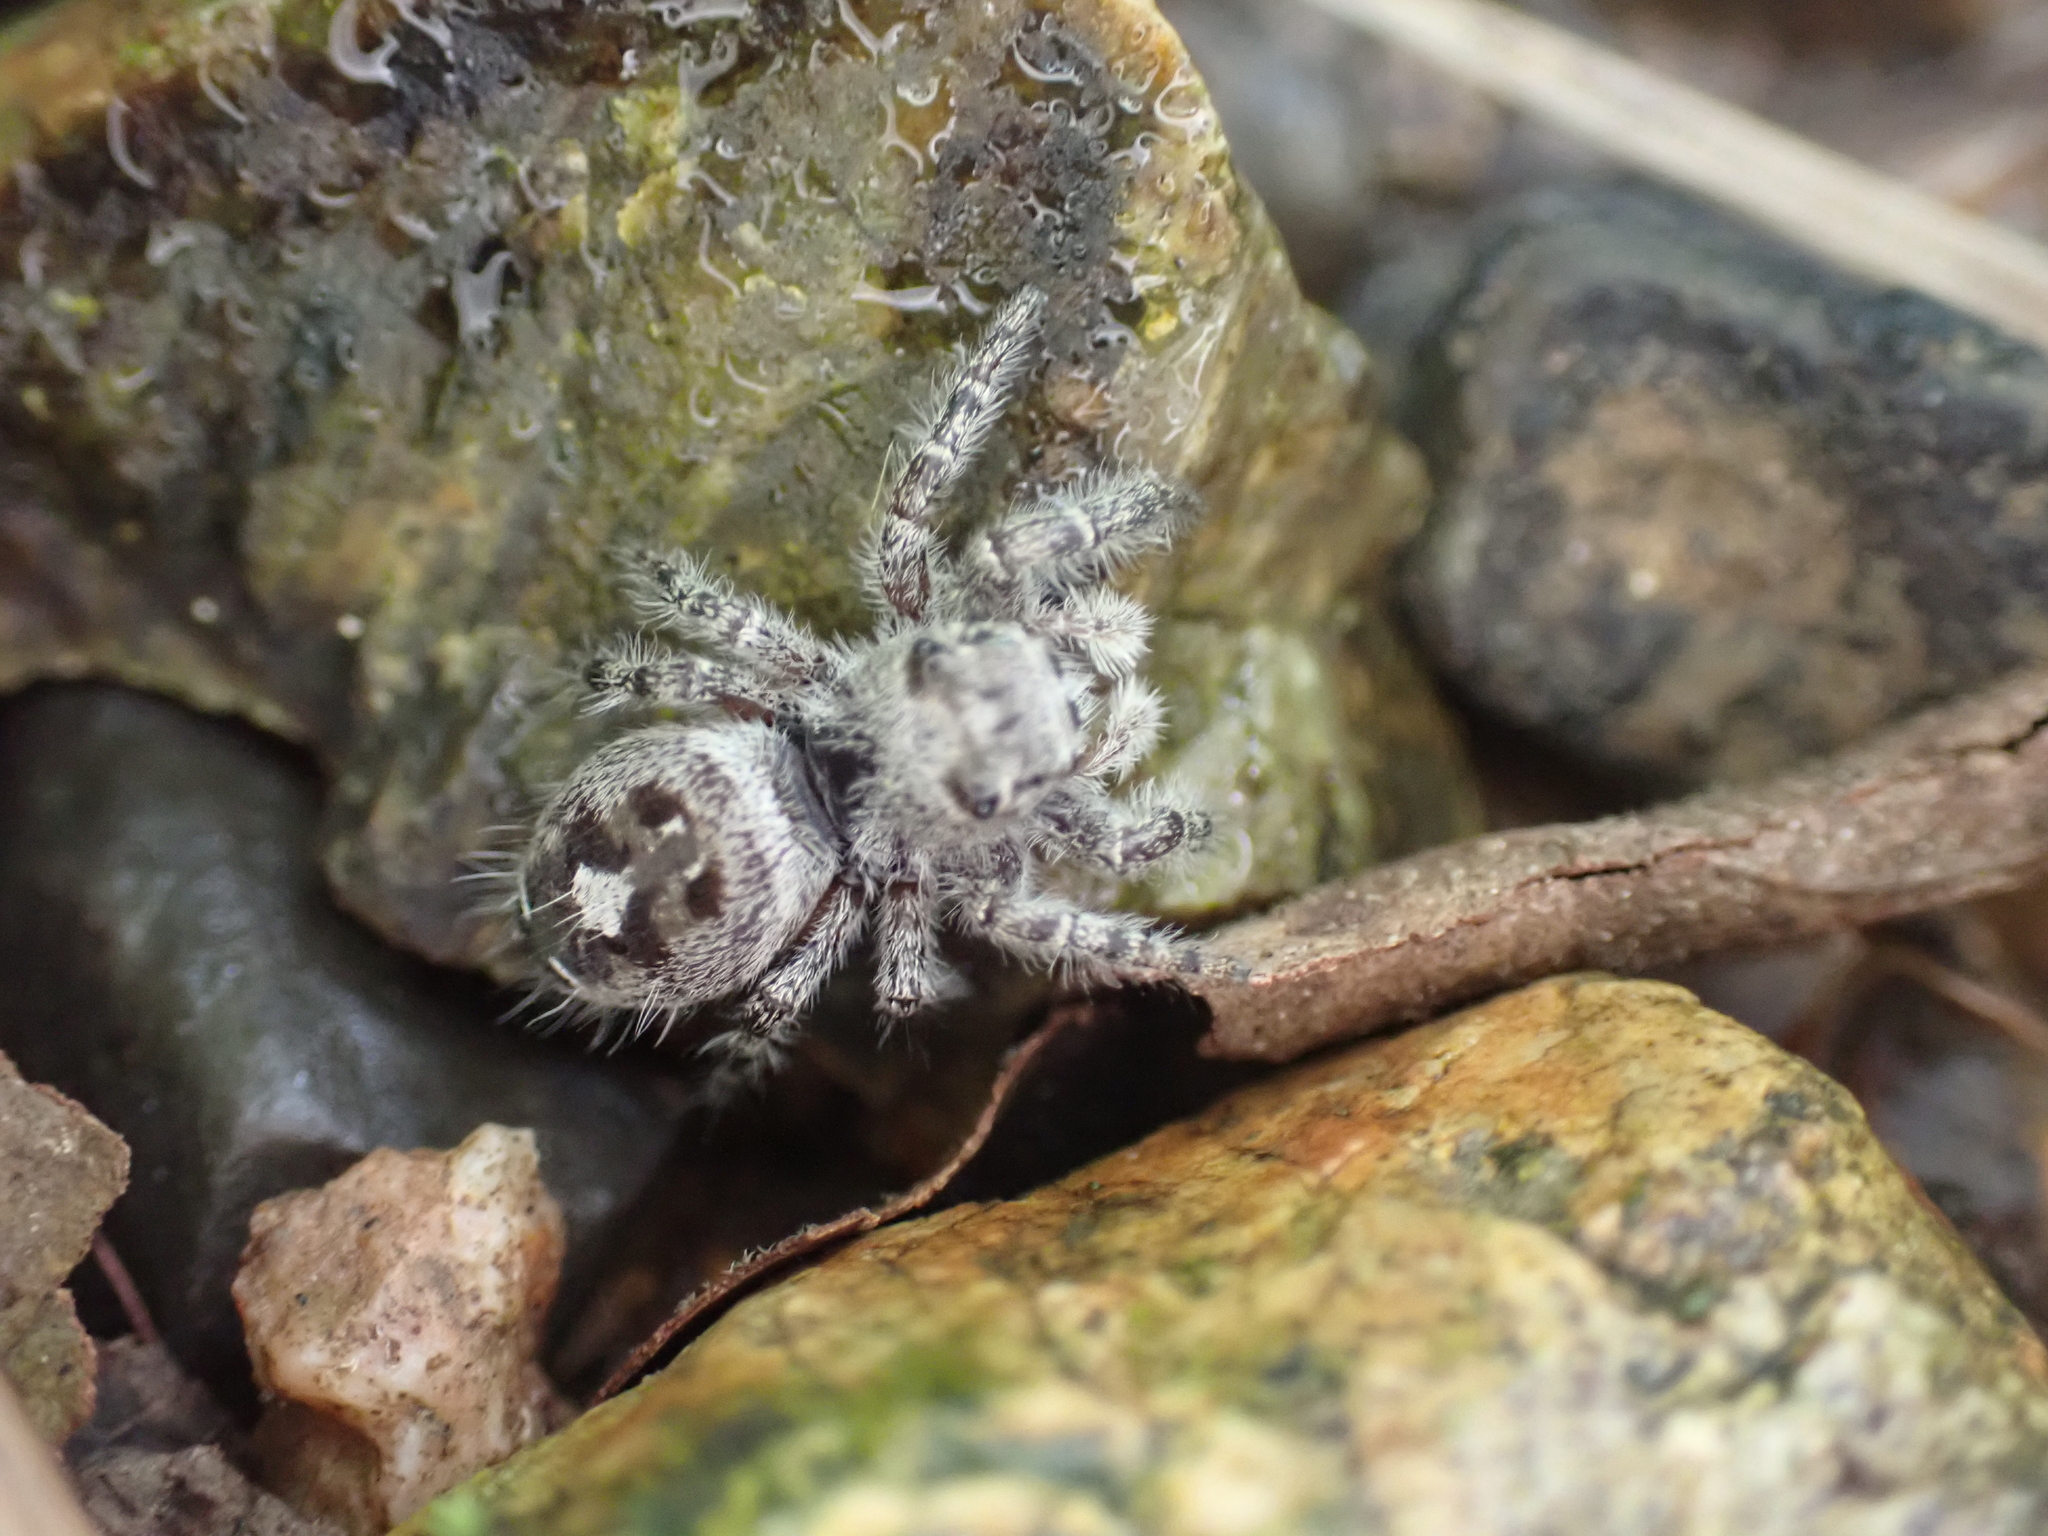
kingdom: Animalia
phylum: Arthropoda
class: Arachnida
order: Araneae
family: Salticidae
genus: Phidippus
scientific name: Phidippus putnami
